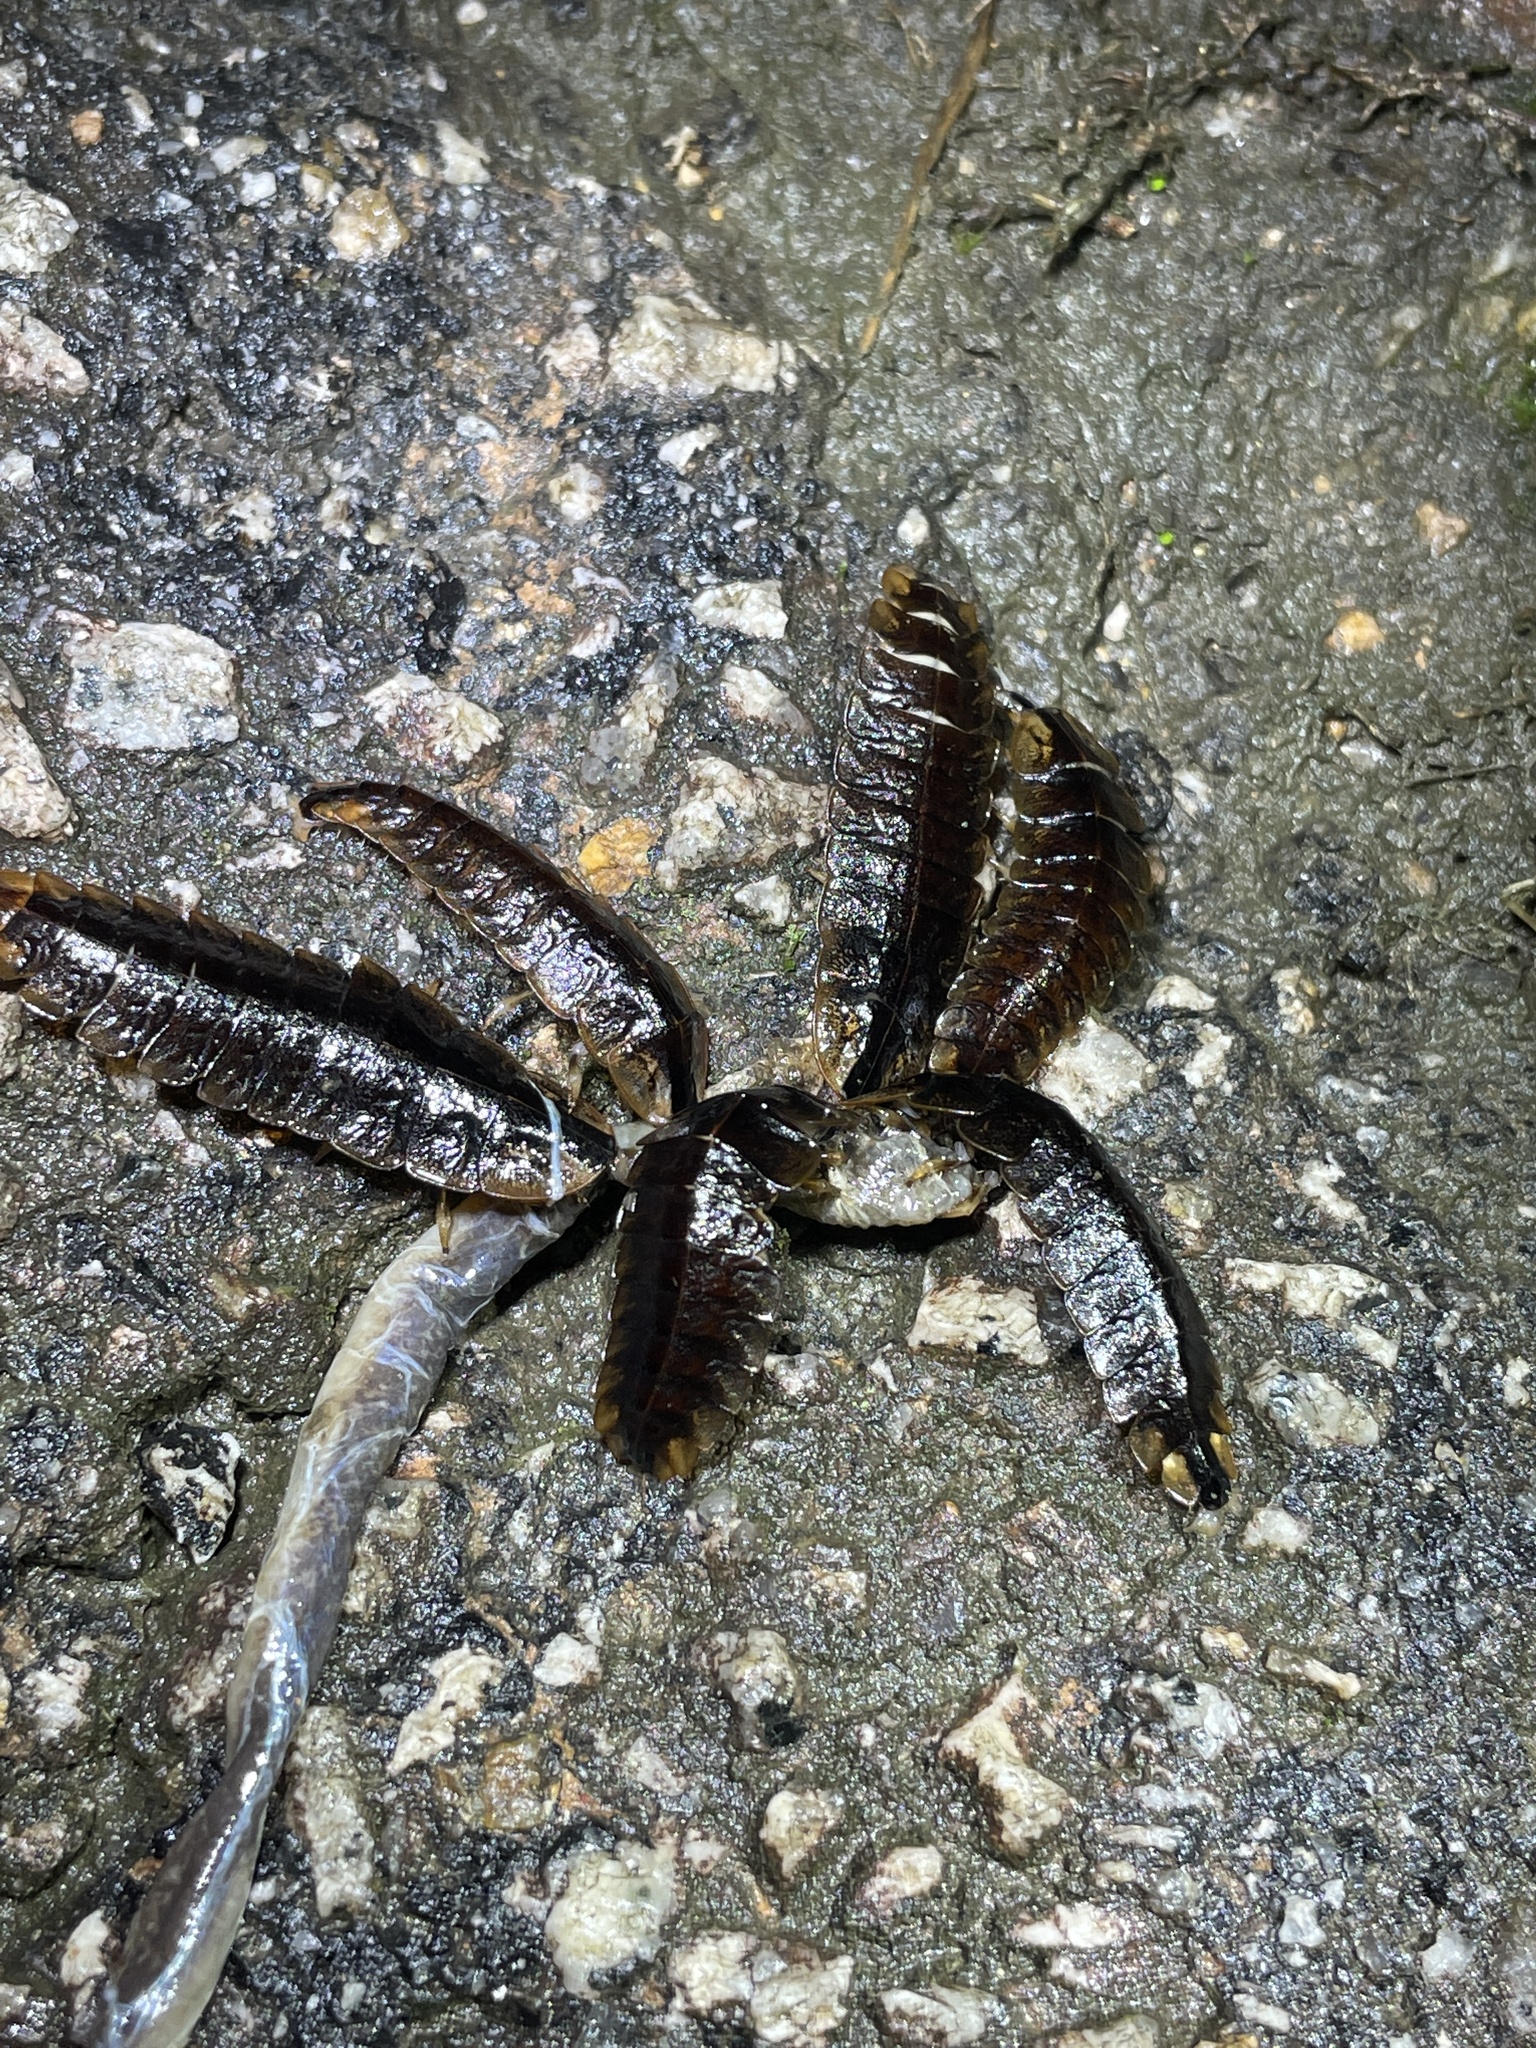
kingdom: Animalia
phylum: Arthropoda
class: Insecta
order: Coleoptera
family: Lampyridae
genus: Lamprigera
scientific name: Lamprigera taimoshana
